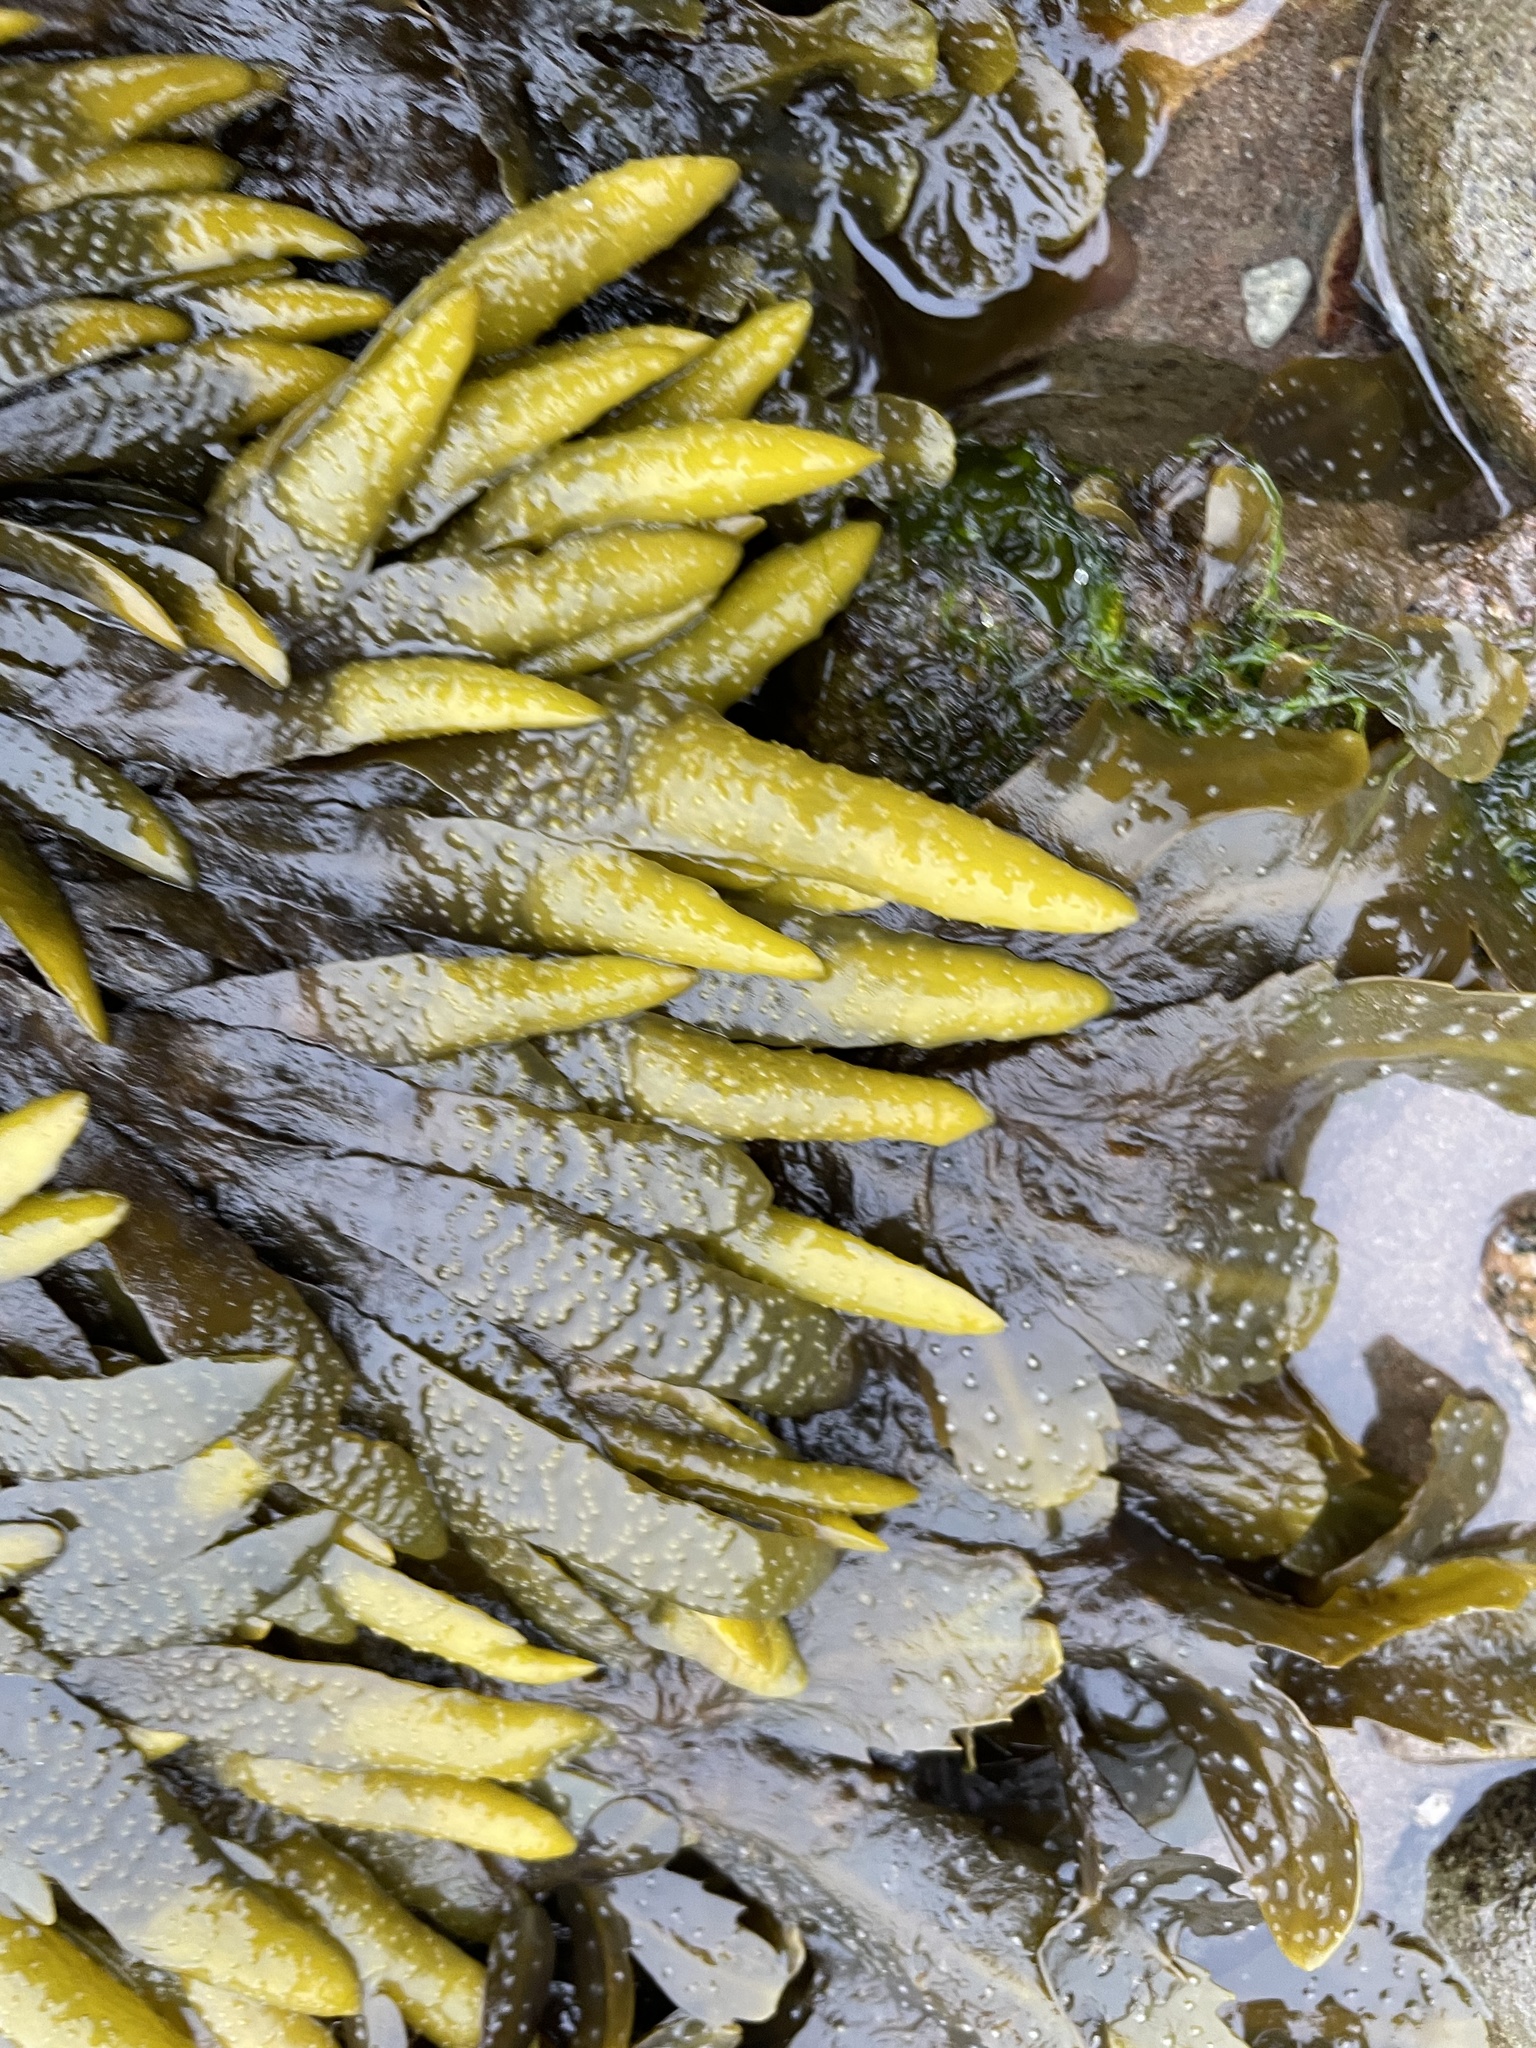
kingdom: Chromista
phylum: Ochrophyta
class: Phaeophyceae
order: Fucales
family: Fucaceae
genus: Fucus
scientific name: Fucus distichus
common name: Rockweed
